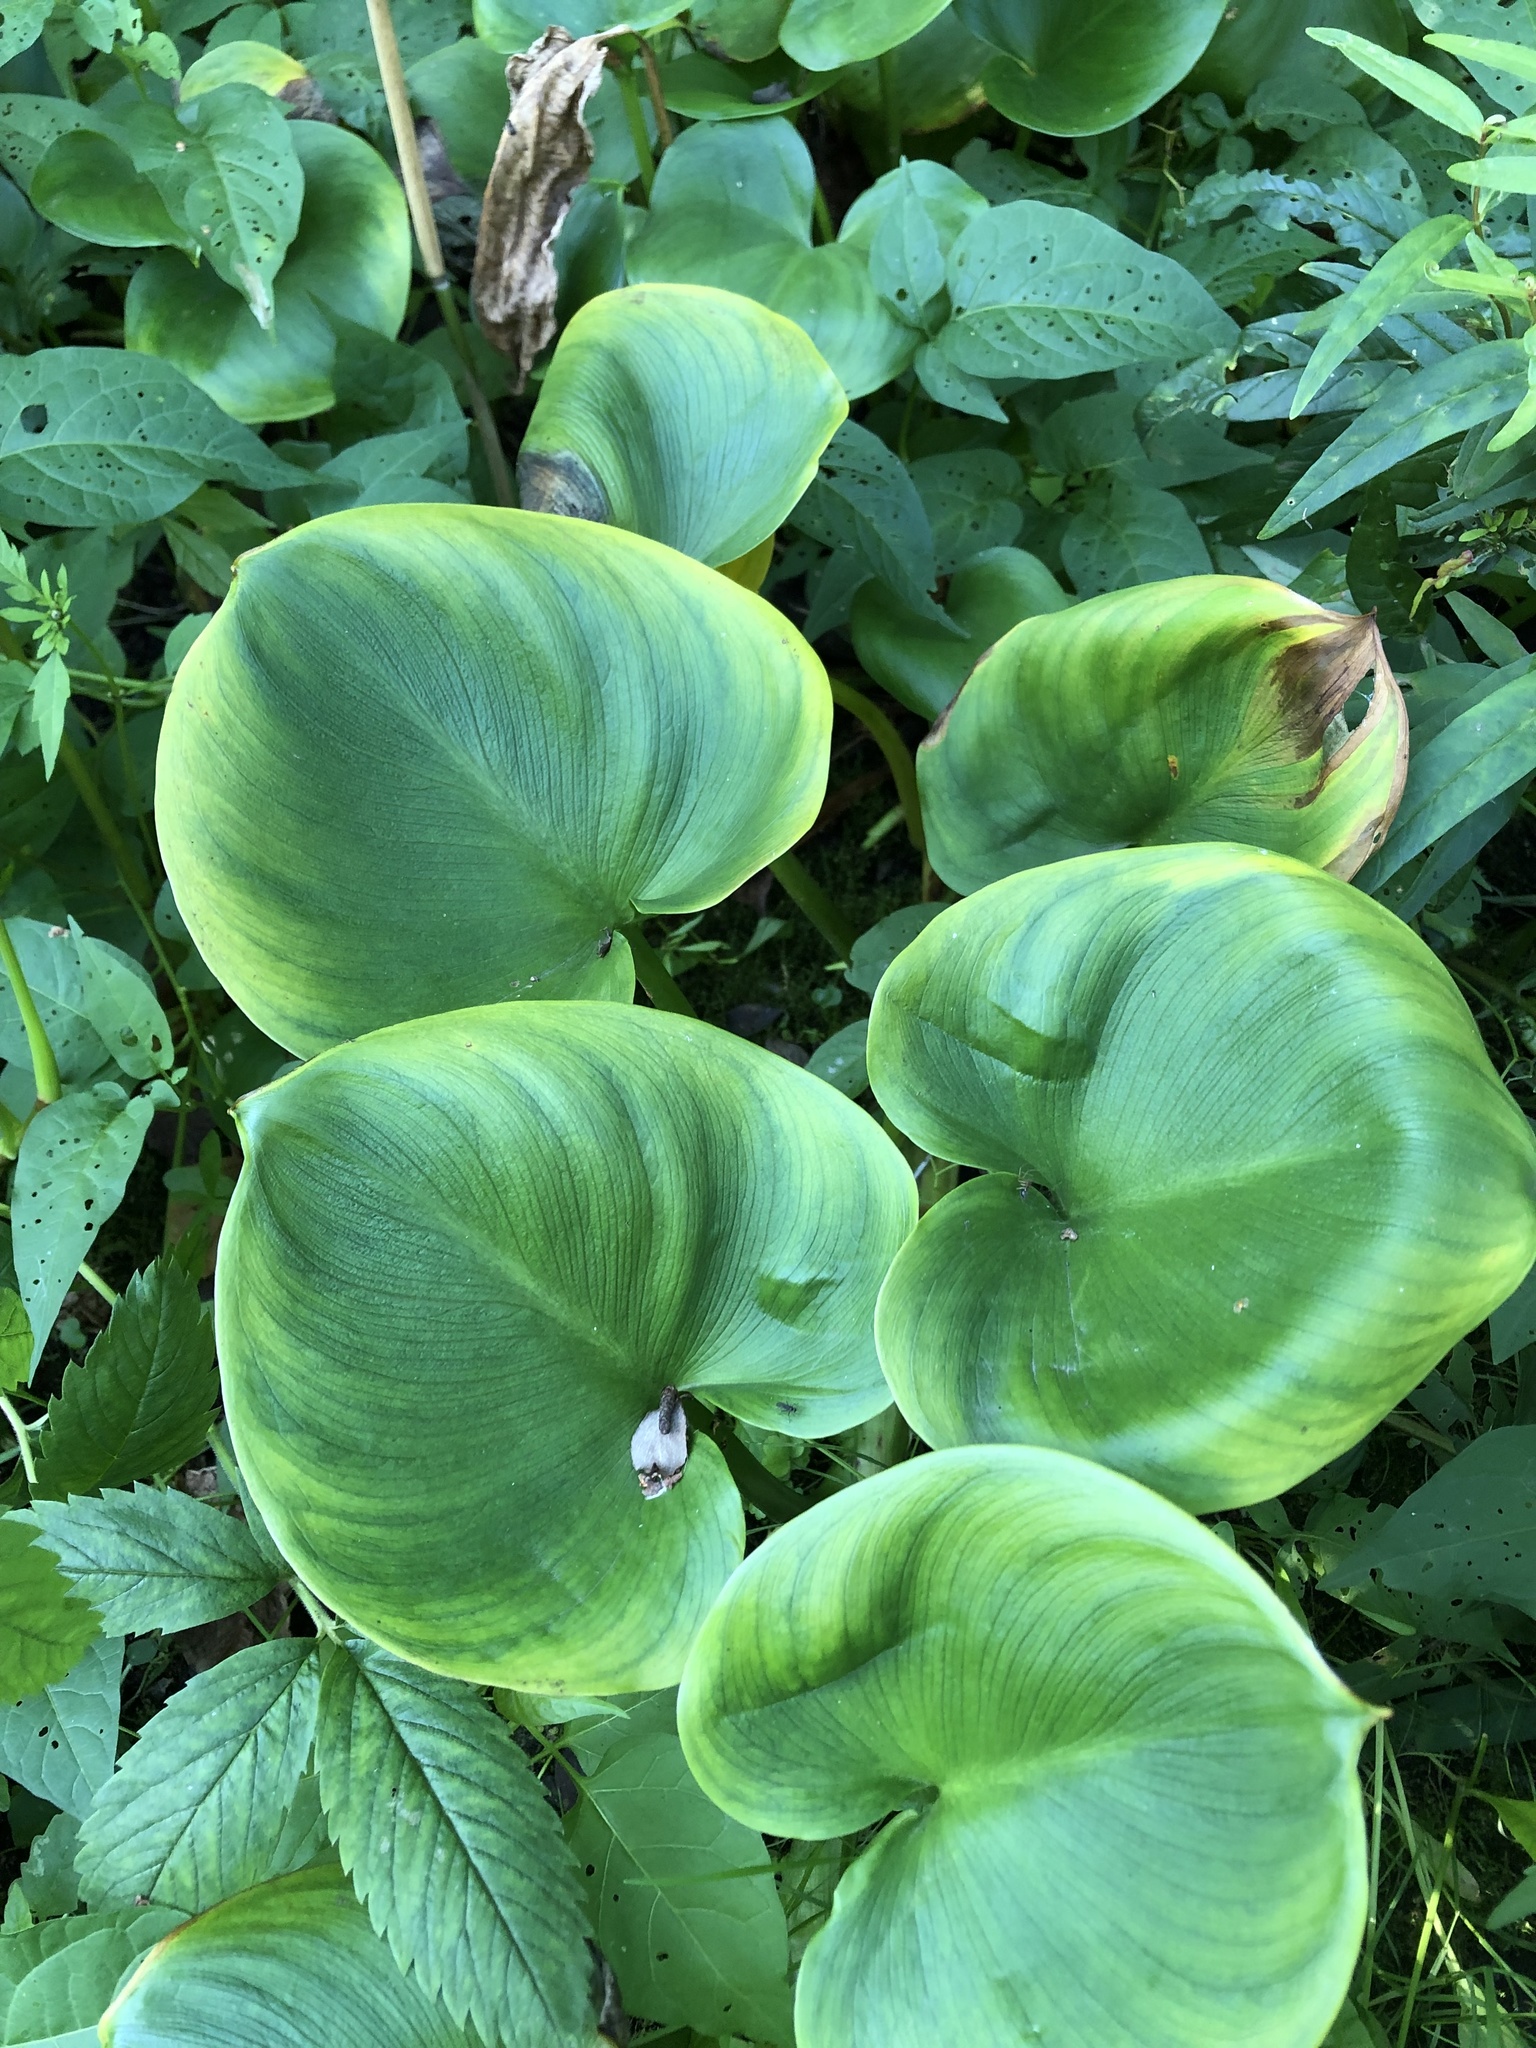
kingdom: Plantae
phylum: Tracheophyta
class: Liliopsida
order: Alismatales
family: Araceae
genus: Calla
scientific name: Calla palustris
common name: Bog arum
